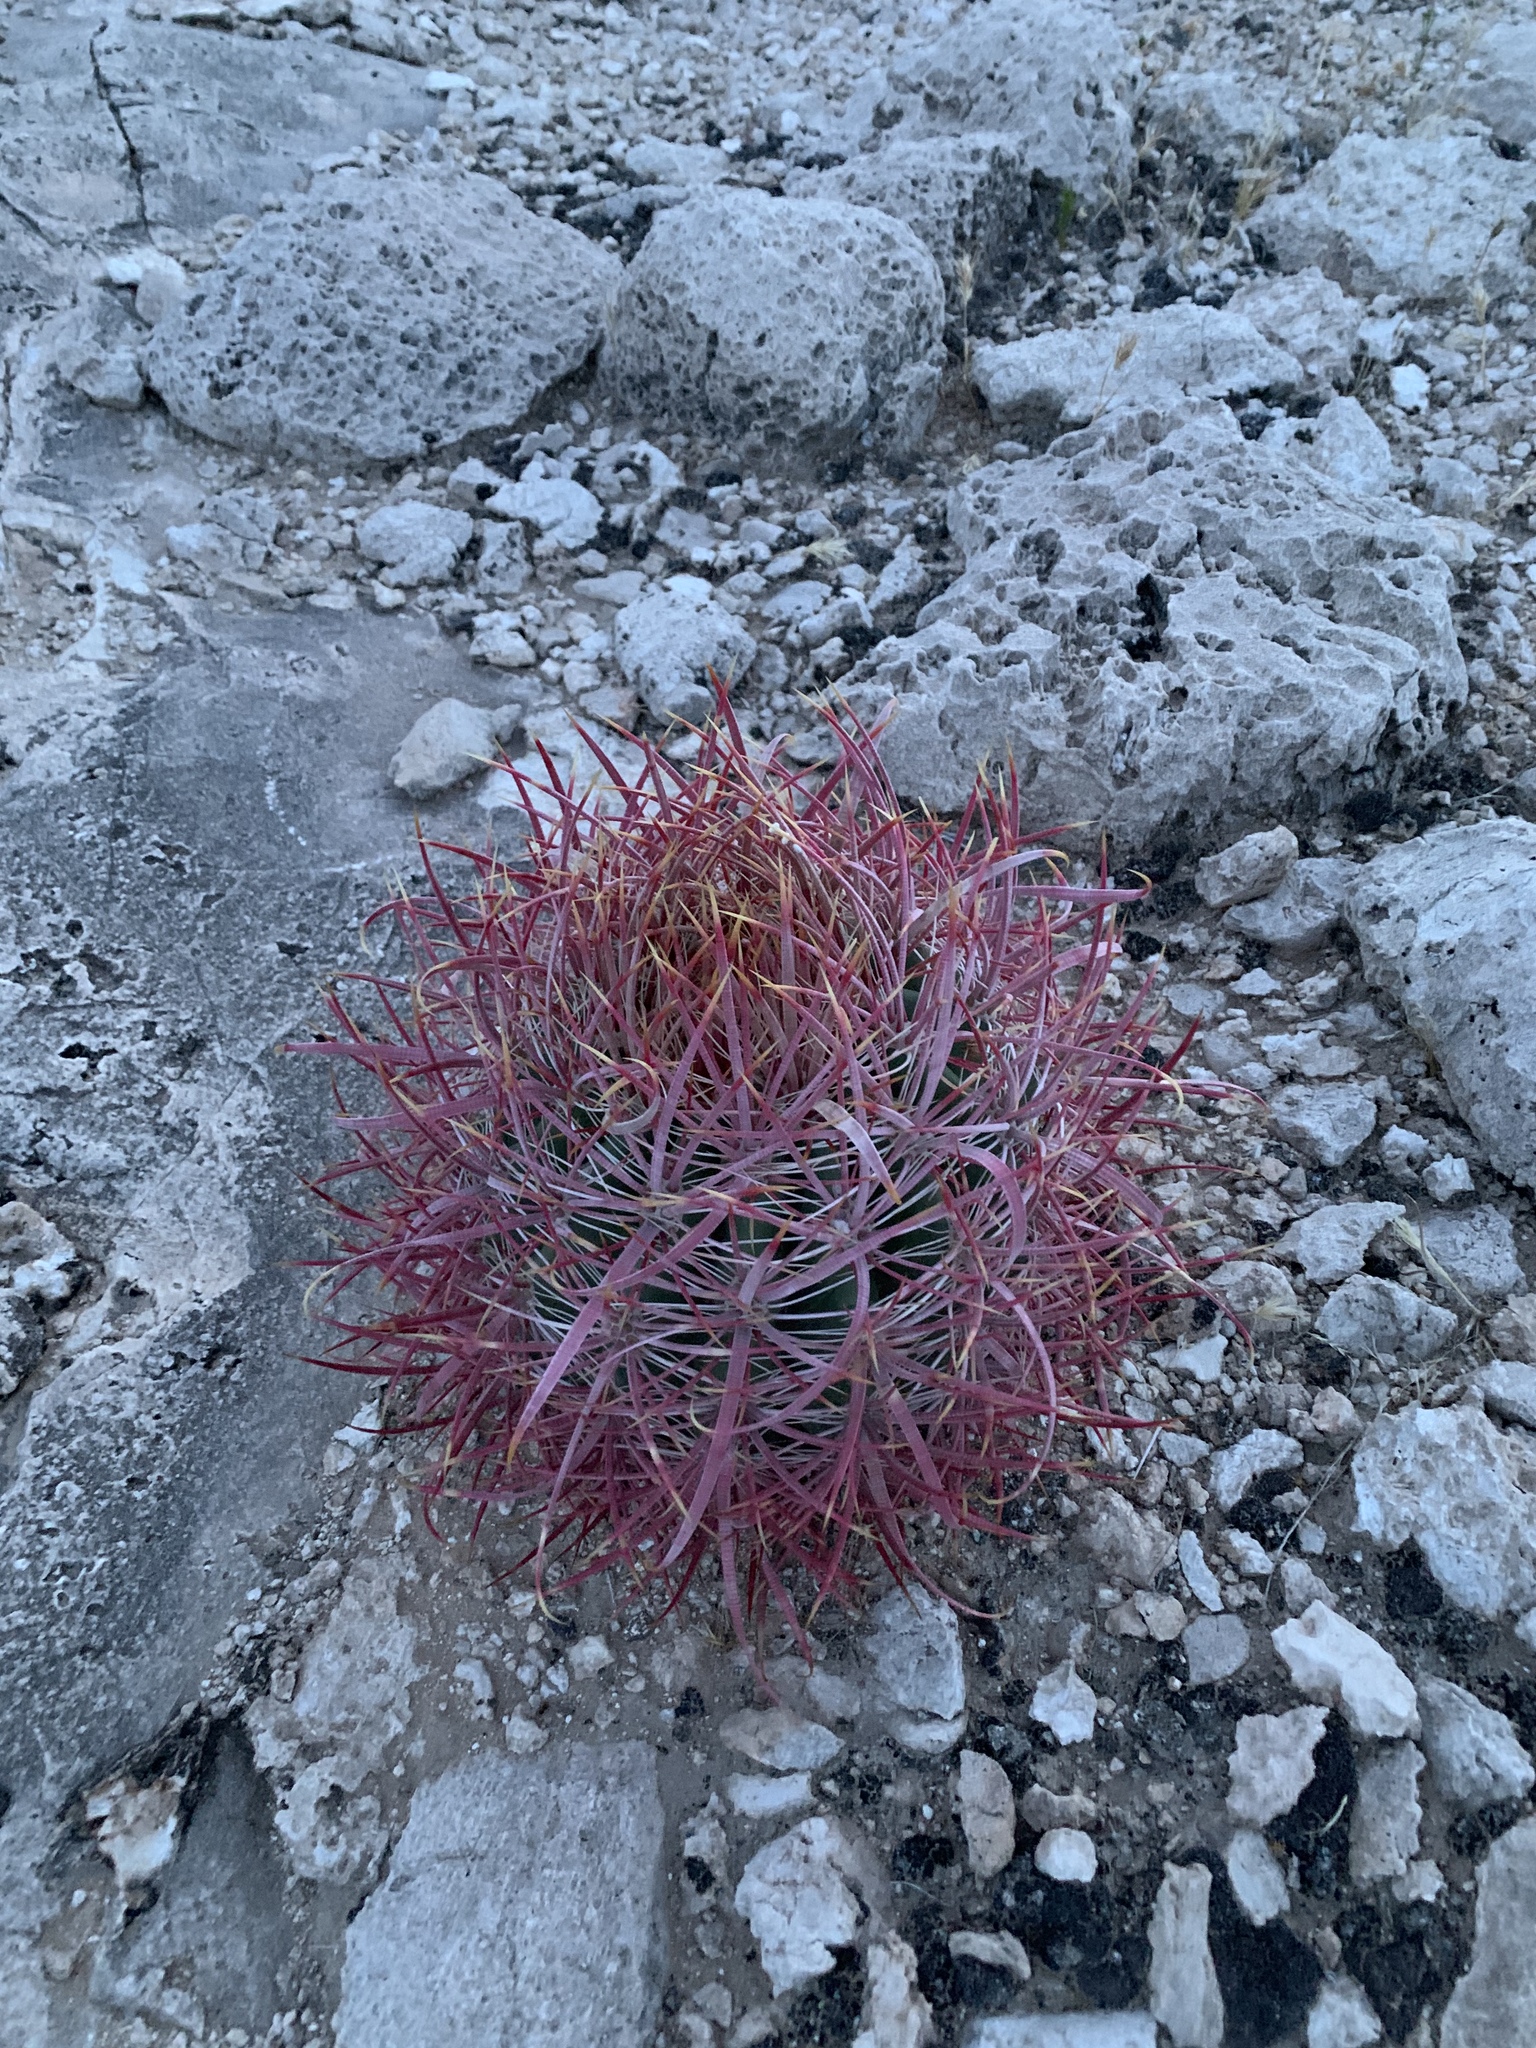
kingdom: Plantae
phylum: Tracheophyta
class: Magnoliopsida
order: Caryophyllales
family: Cactaceae
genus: Ferocactus
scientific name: Ferocactus cylindraceus
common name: California barrel cactus
